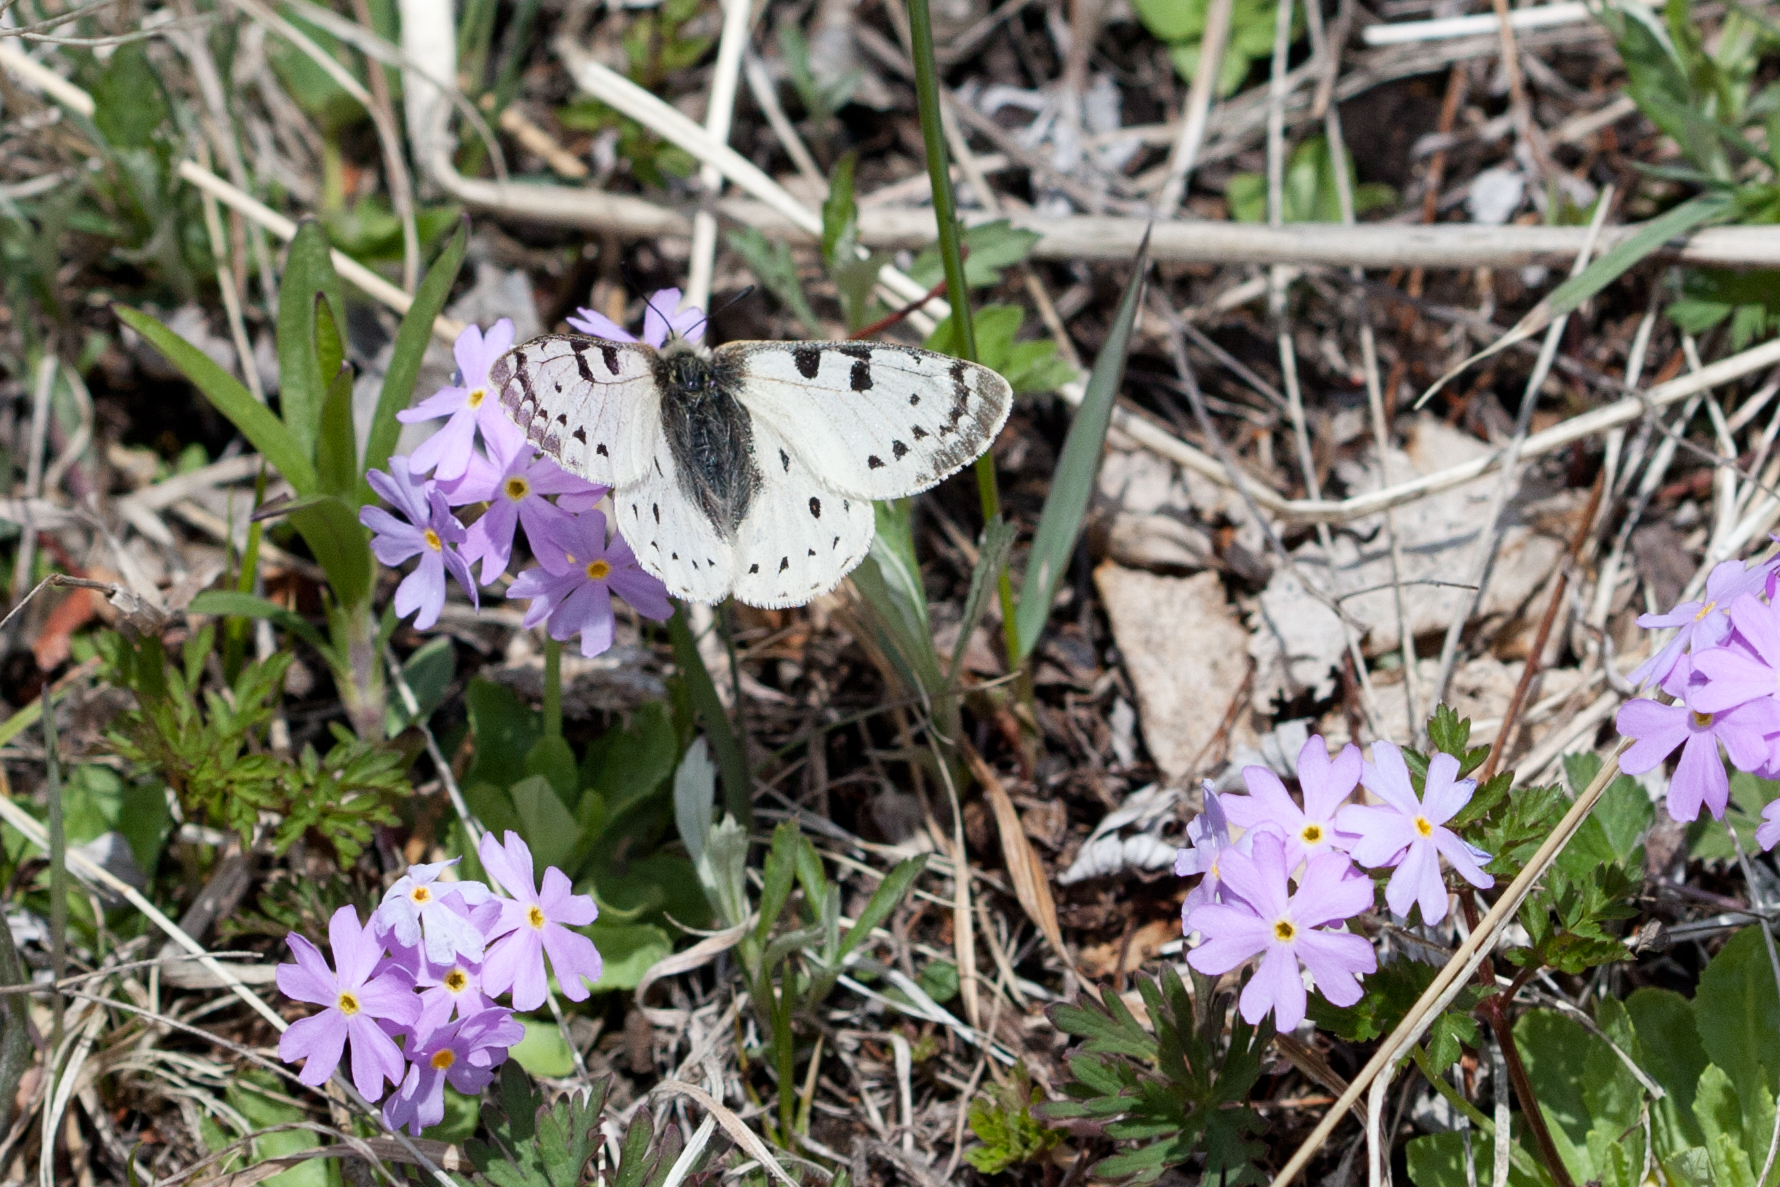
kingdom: Animalia
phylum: Arthropoda
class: Insecta
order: Lepidoptera
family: Papilionidae
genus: Parnassius
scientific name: Parnassius tenedius
